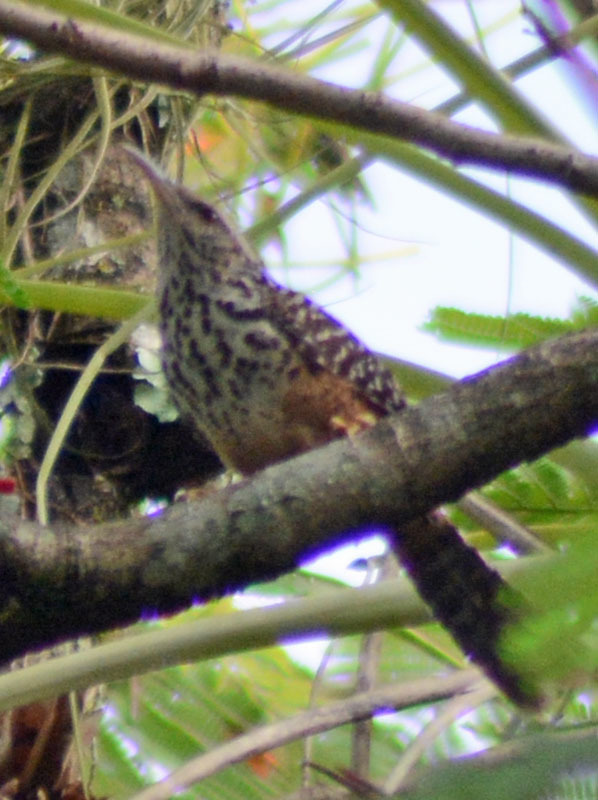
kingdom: Animalia
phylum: Chordata
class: Aves
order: Passeriformes
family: Troglodytidae
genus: Campylorhynchus
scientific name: Campylorhynchus zonatus
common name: Band-backed wren
